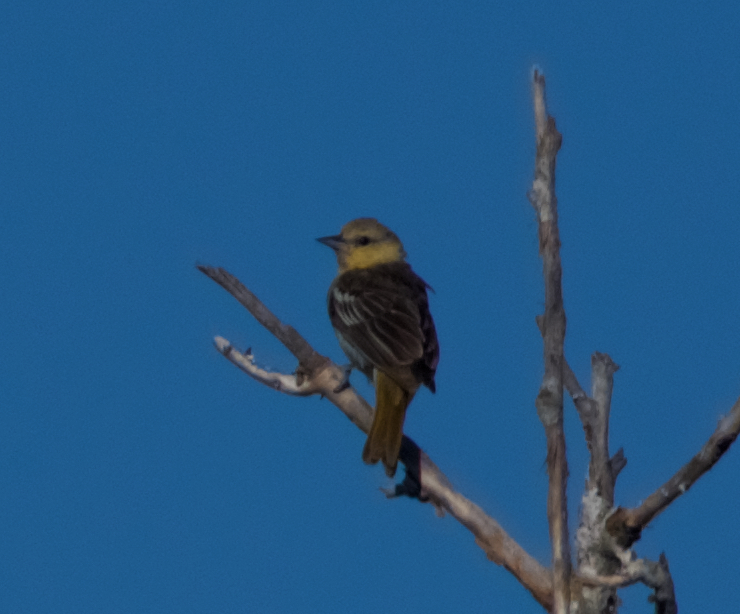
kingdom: Animalia
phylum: Chordata
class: Aves
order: Passeriformes
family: Icteridae
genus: Icterus
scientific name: Icterus bullockii
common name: Bullock's oriole
